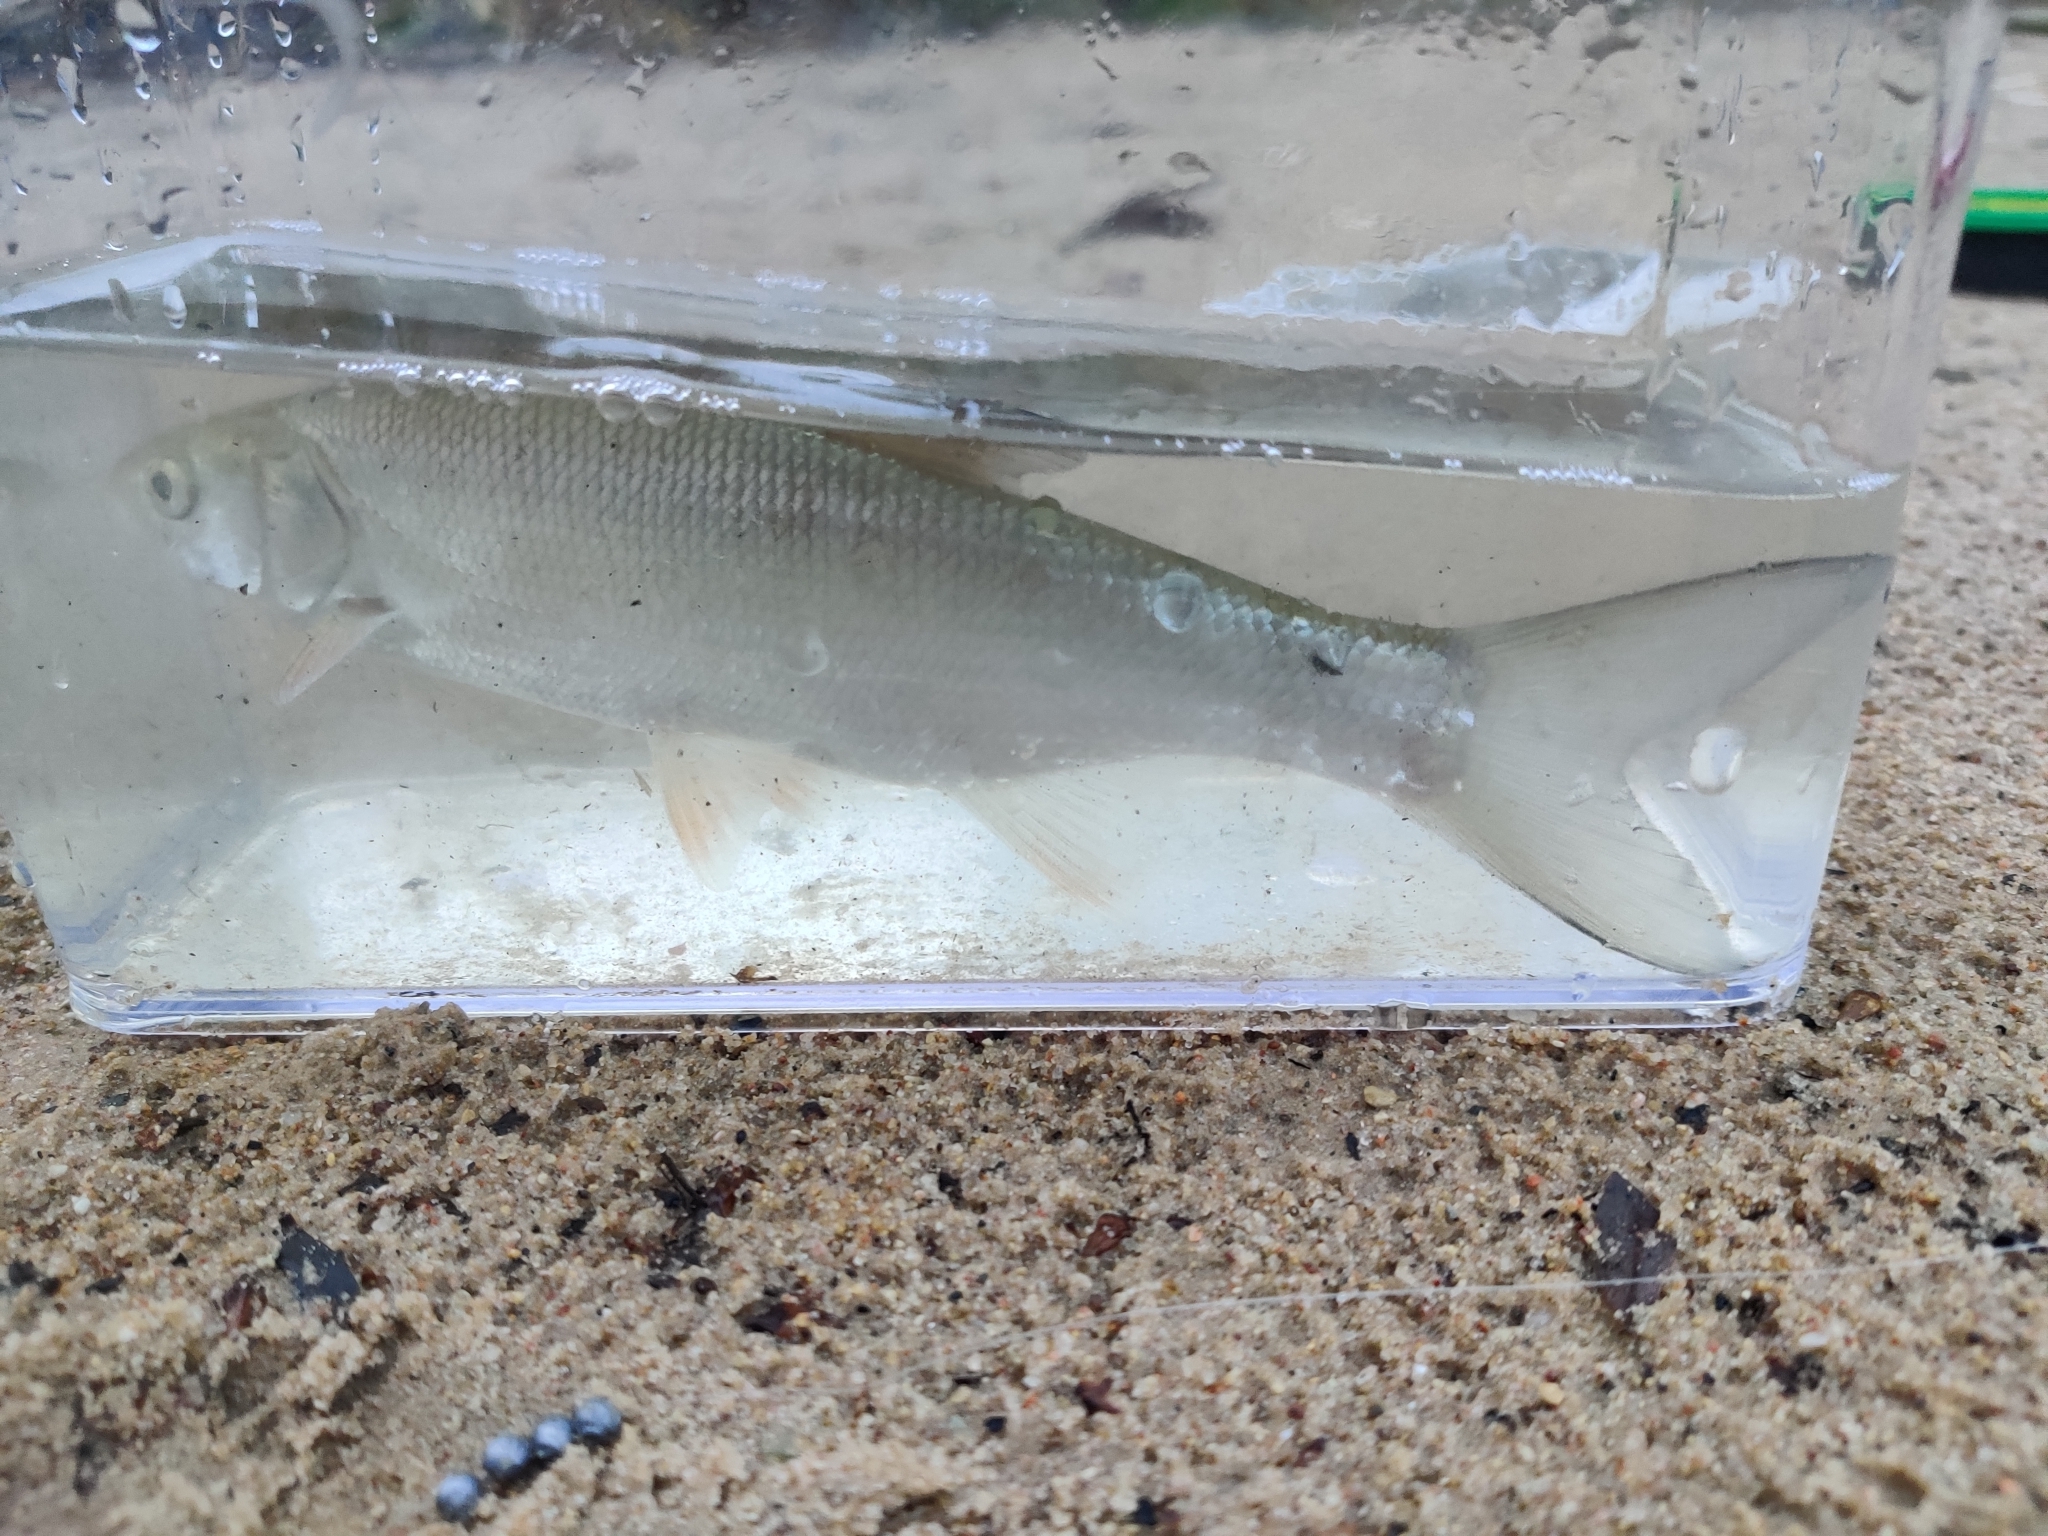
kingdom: Animalia
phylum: Chordata
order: Cypriniformes
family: Cyprinidae
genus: Leuciscus
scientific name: Leuciscus aspius
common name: Asp
